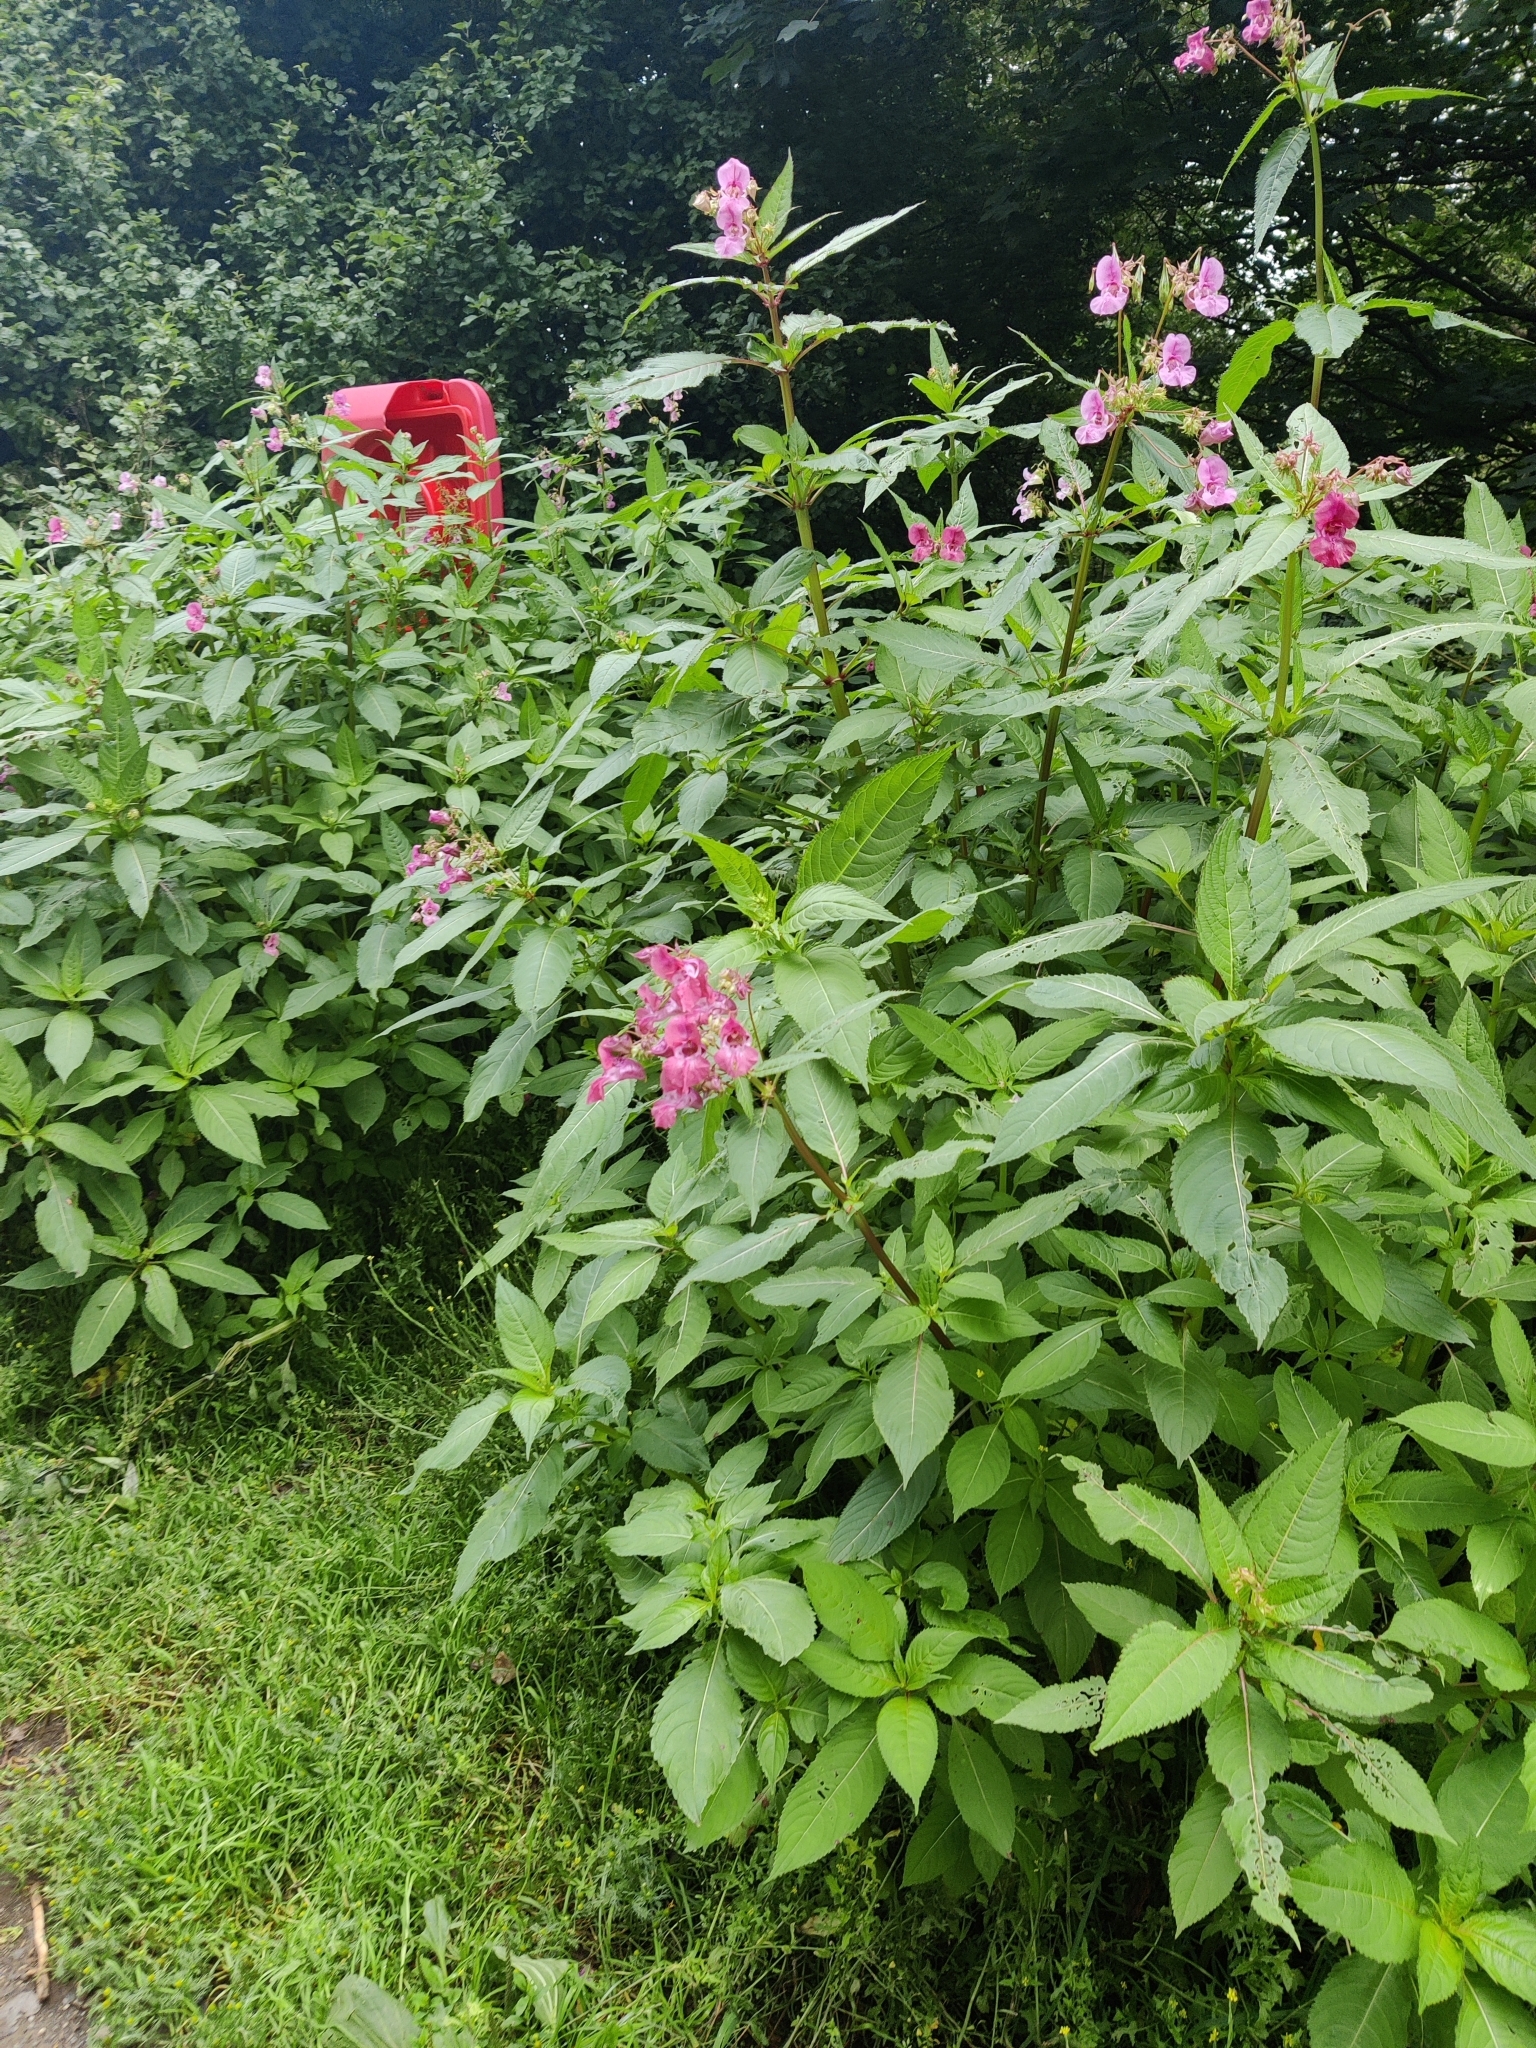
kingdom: Plantae
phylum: Tracheophyta
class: Magnoliopsida
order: Ericales
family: Balsaminaceae
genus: Impatiens
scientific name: Impatiens glandulifera
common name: Himalayan balsam
